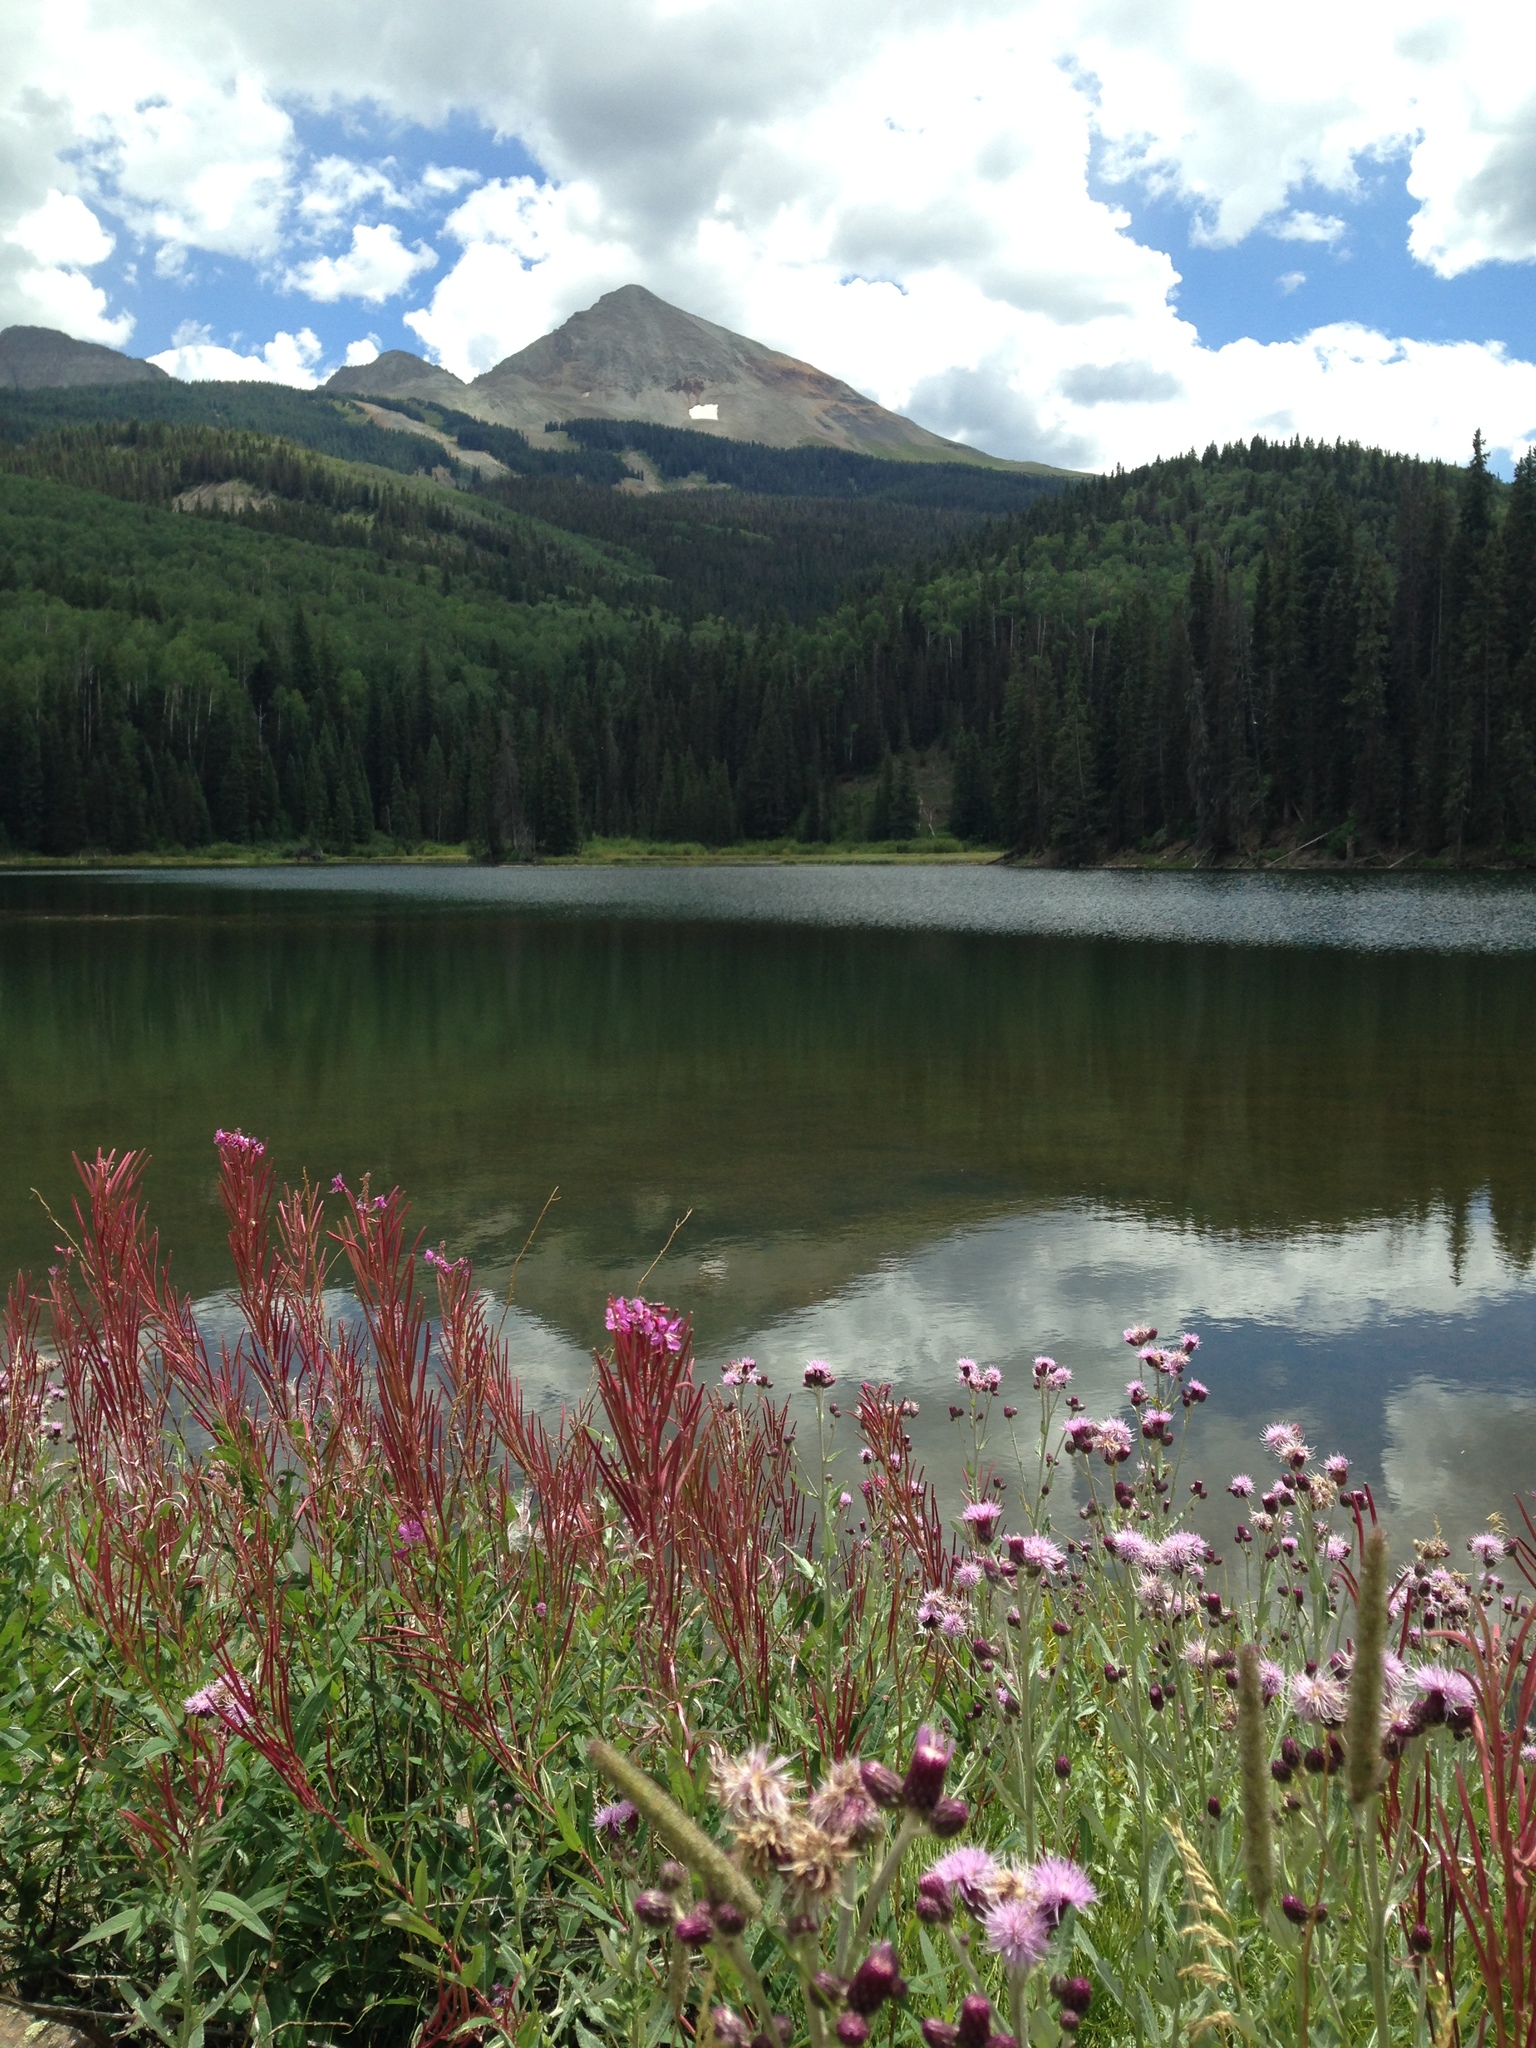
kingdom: Plantae
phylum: Tracheophyta
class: Magnoliopsida
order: Myrtales
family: Onagraceae
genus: Chamaenerion
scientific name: Chamaenerion angustifolium
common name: Fireweed
